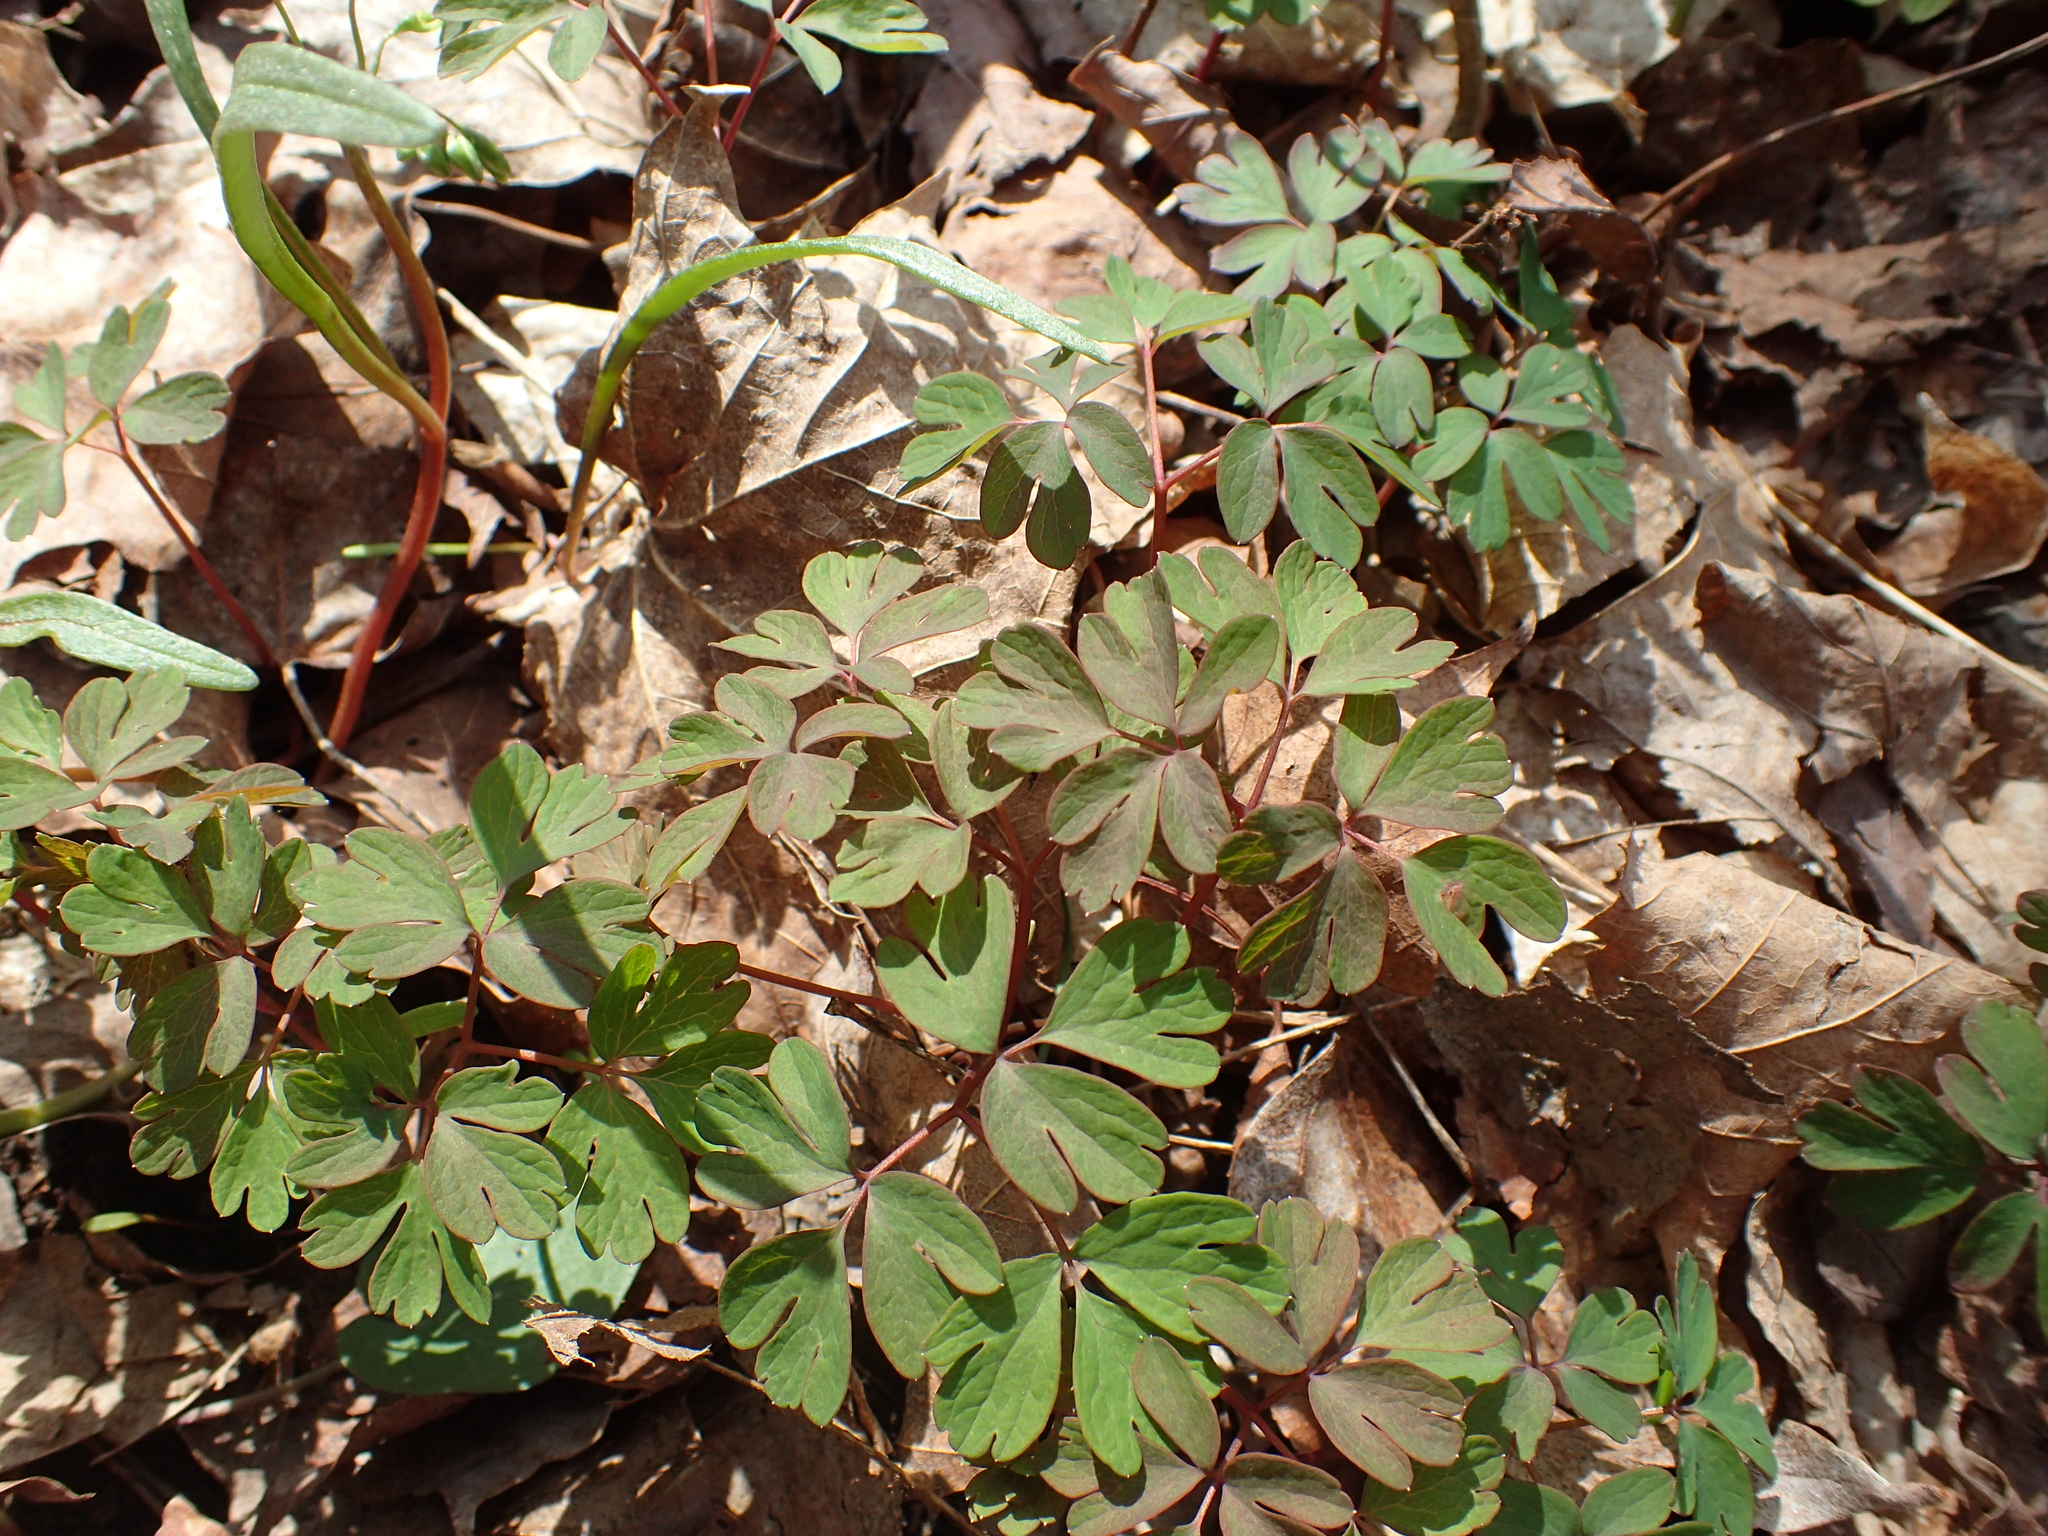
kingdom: Plantae
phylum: Tracheophyta
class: Magnoliopsida
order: Ranunculales
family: Ranunculaceae
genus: Enemion
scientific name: Enemion biternatum
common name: Eastern false rue-anemone
